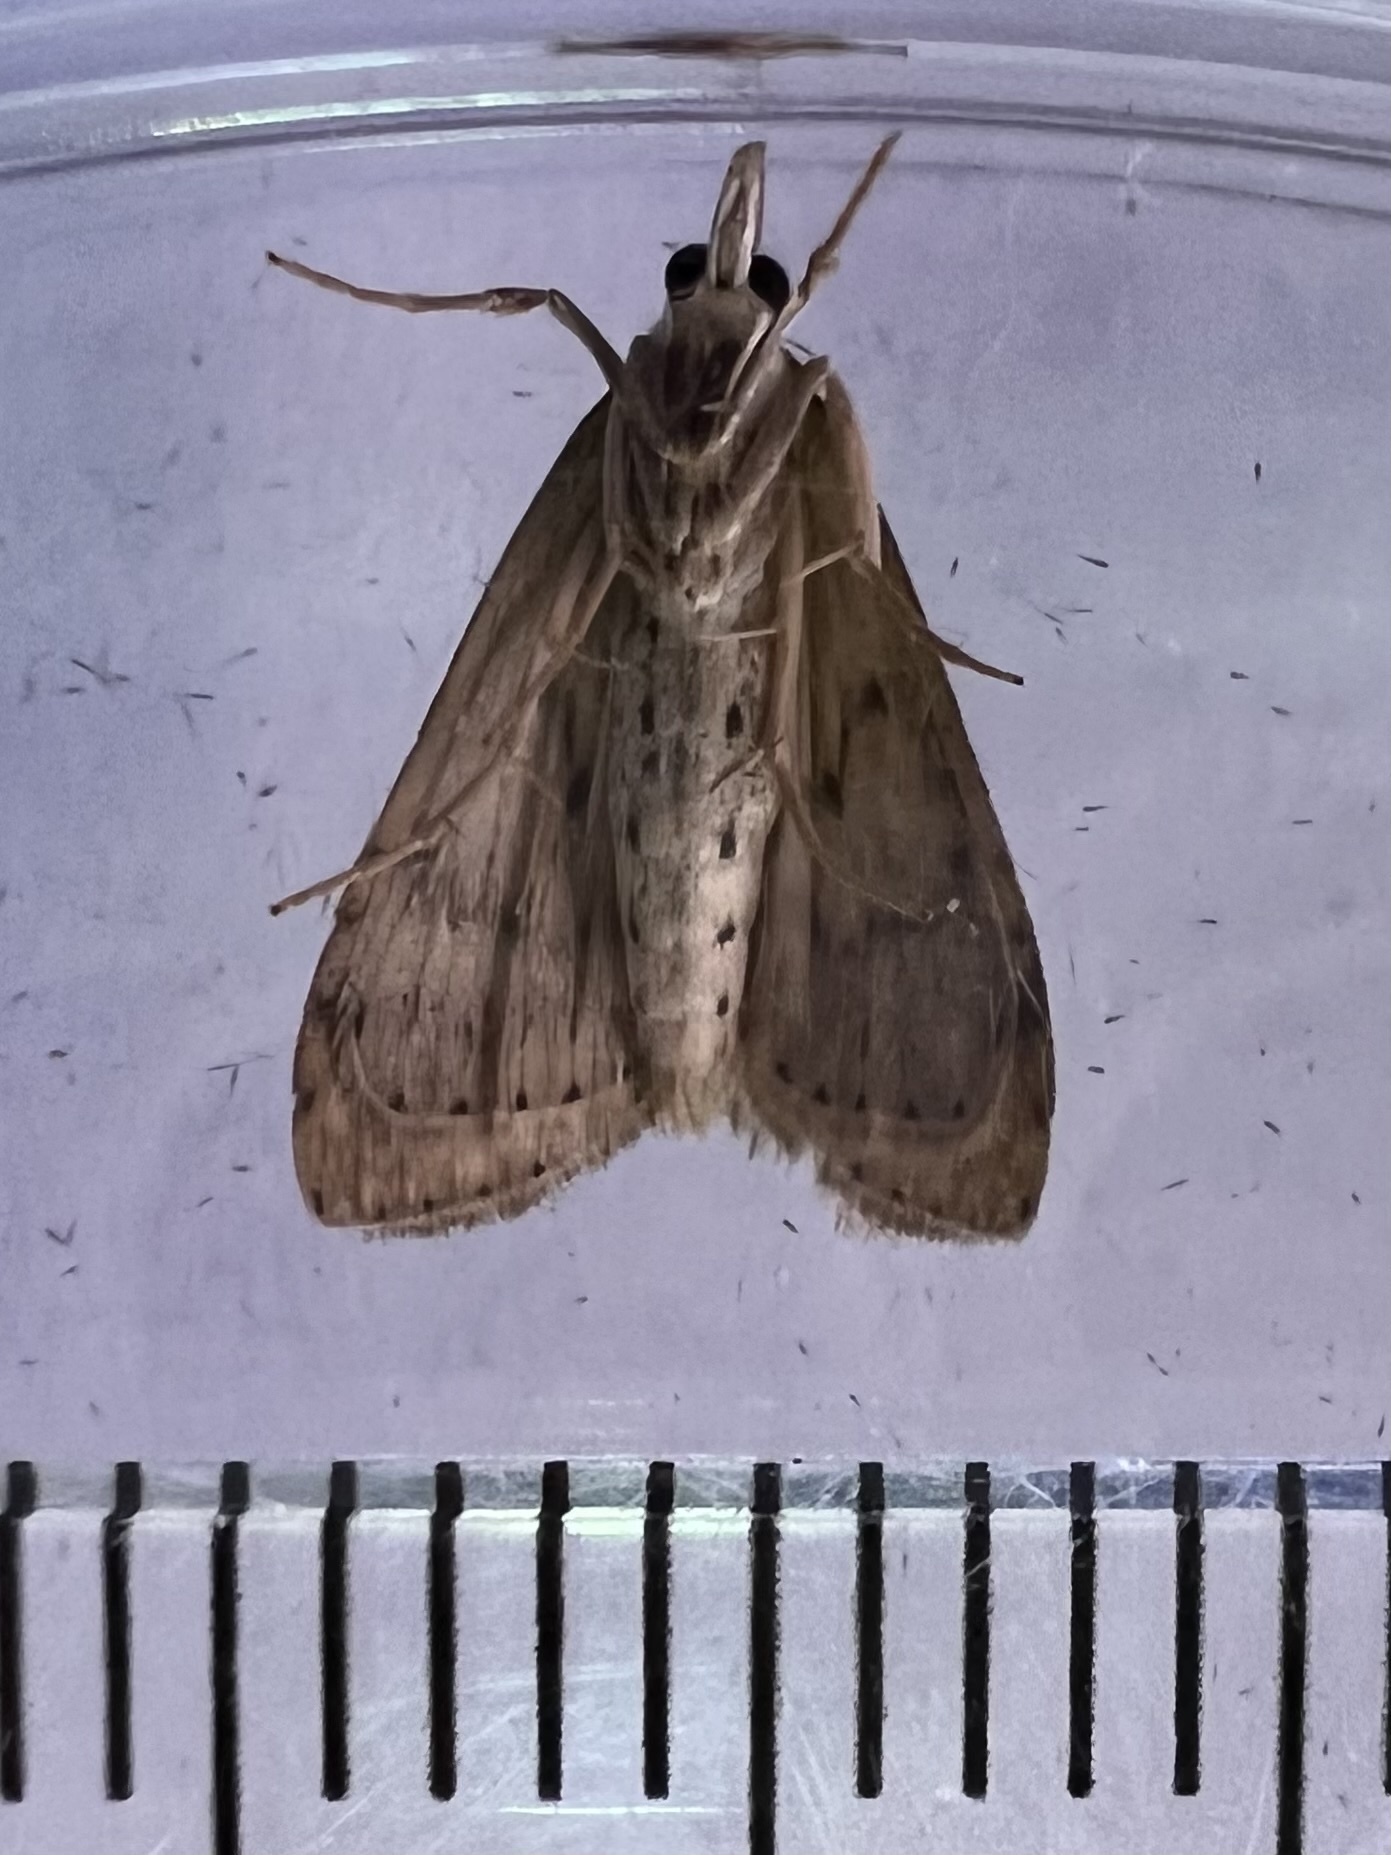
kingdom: Animalia
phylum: Arthropoda
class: Insecta
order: Lepidoptera
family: Crambidae
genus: Udea
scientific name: Udea rubigalis
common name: Celery leaftier moth
